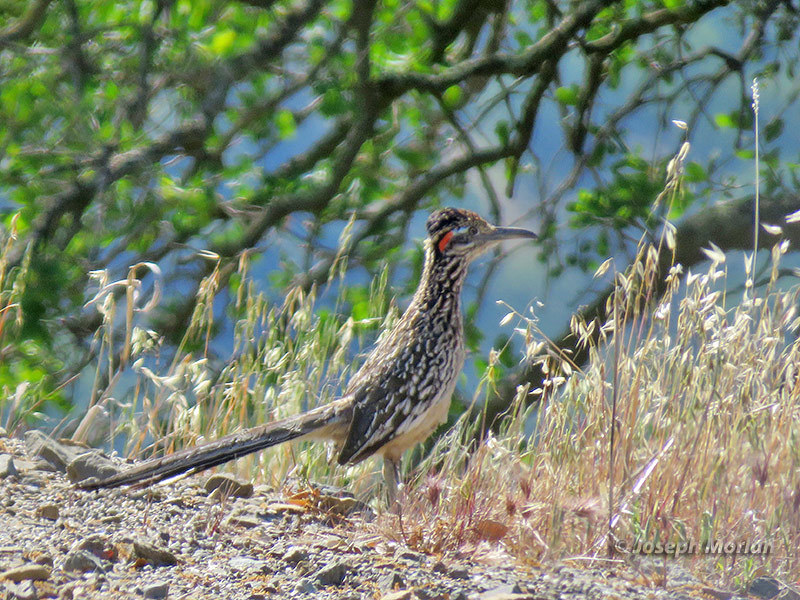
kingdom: Animalia
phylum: Chordata
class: Aves
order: Cuculiformes
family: Cuculidae
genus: Geococcyx
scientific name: Geococcyx californianus
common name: Greater roadrunner
